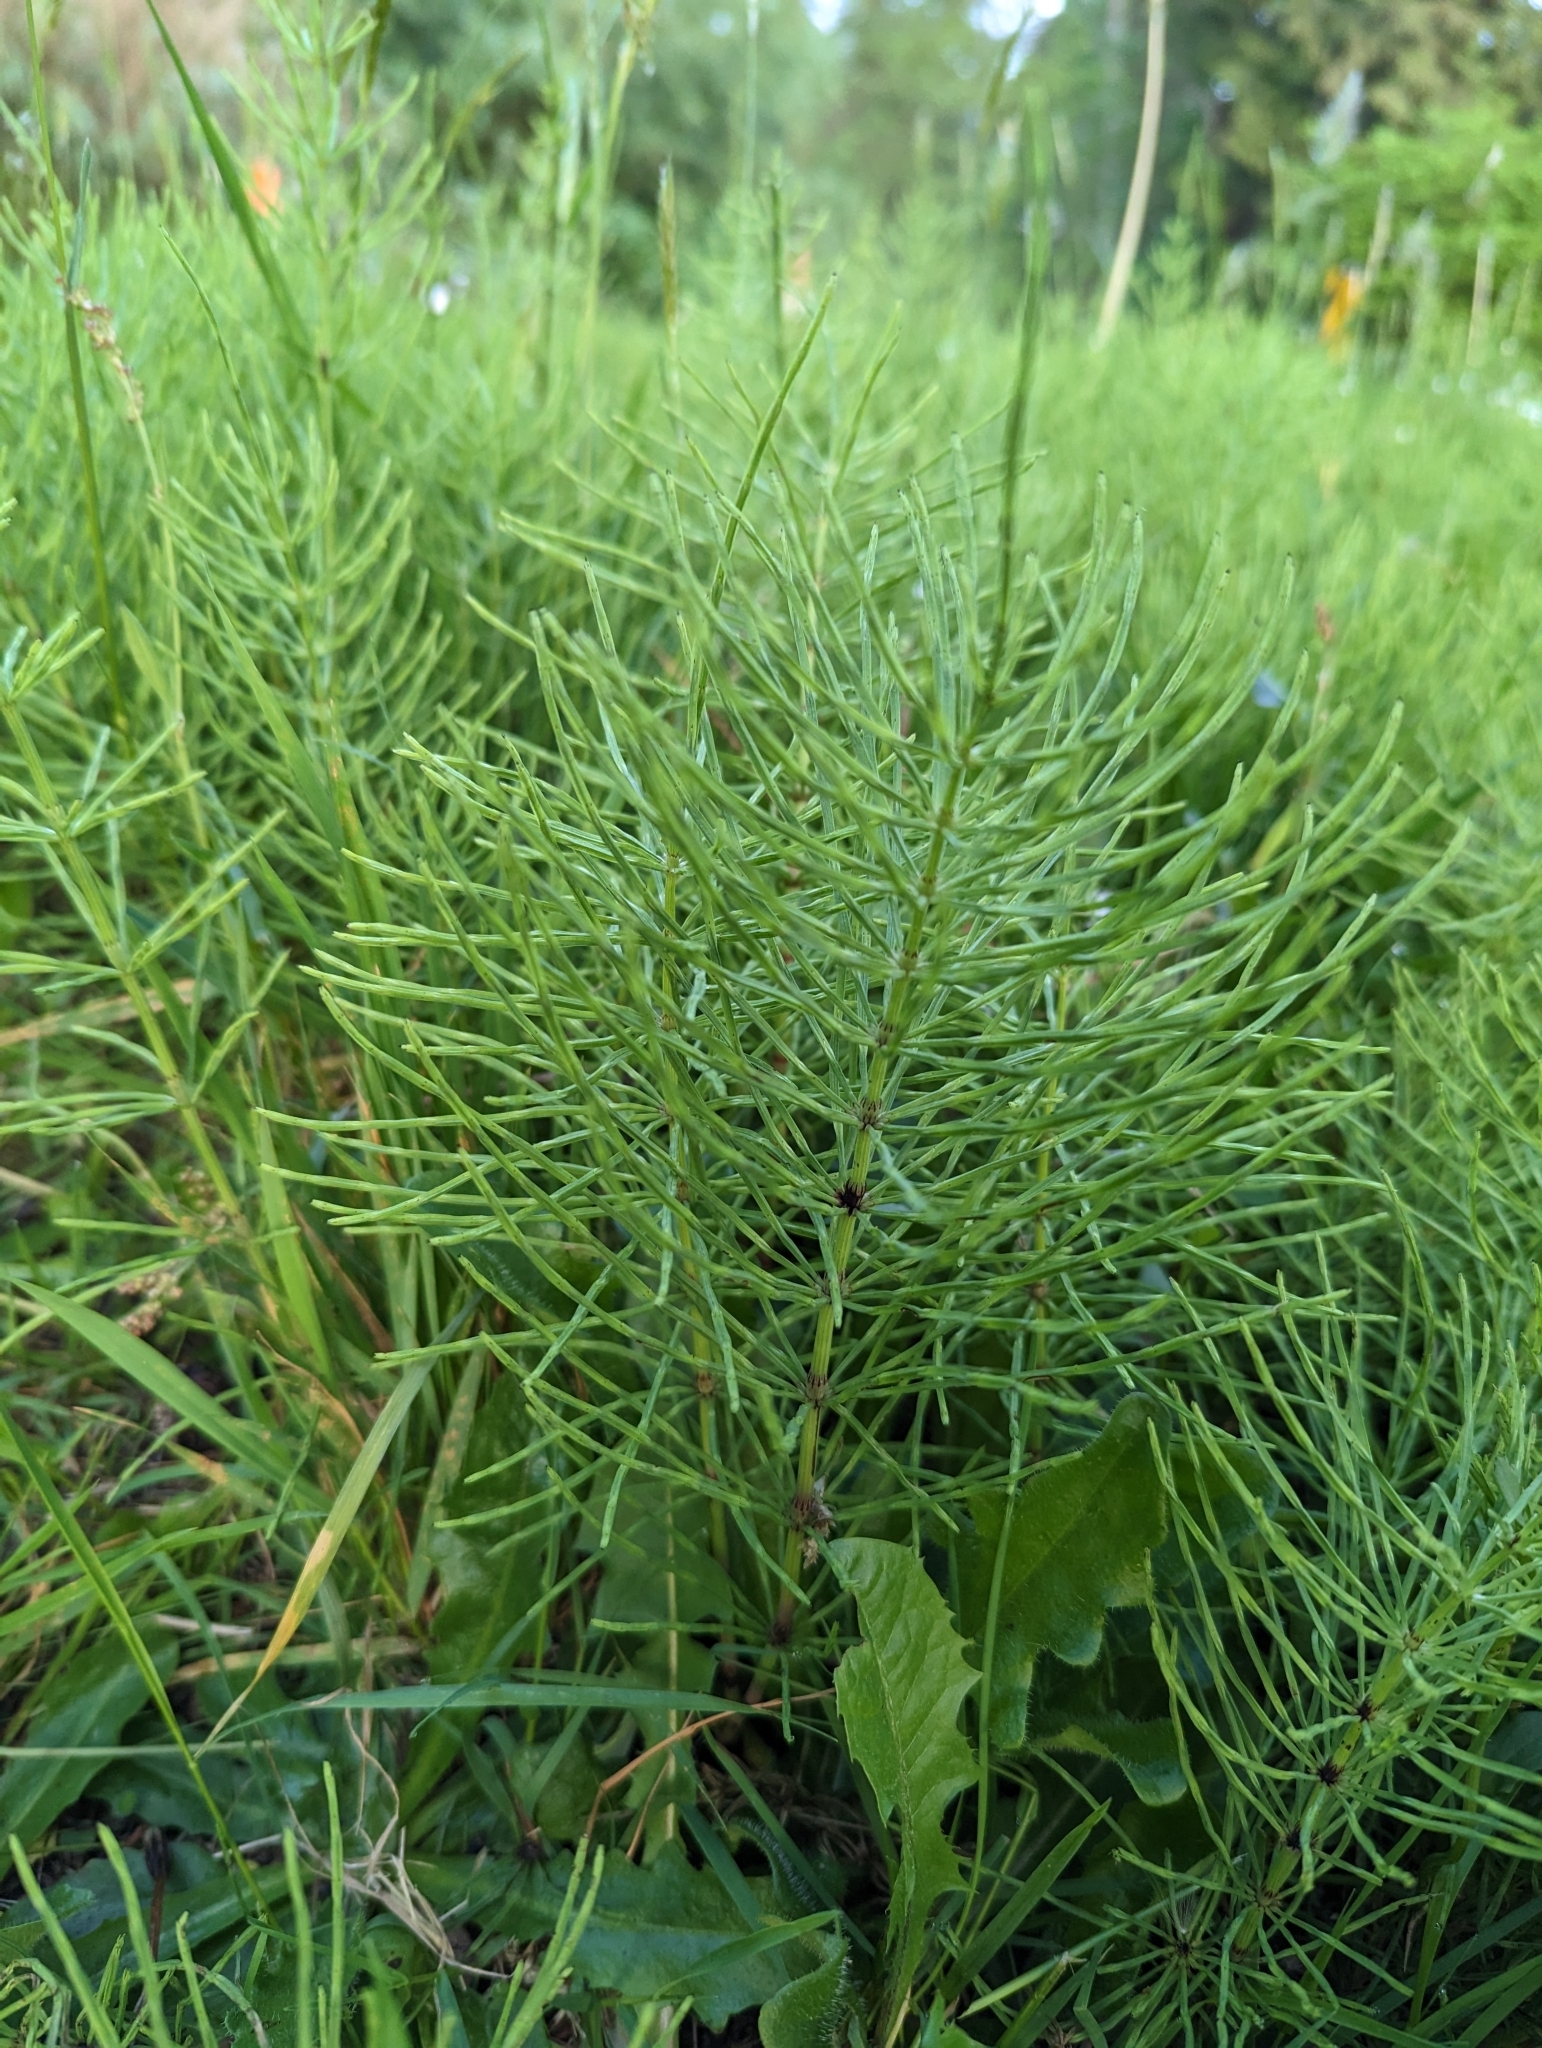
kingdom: Plantae
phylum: Tracheophyta
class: Polypodiopsida
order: Equisetales
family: Equisetaceae
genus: Equisetum
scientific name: Equisetum arvense
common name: Field horsetail
